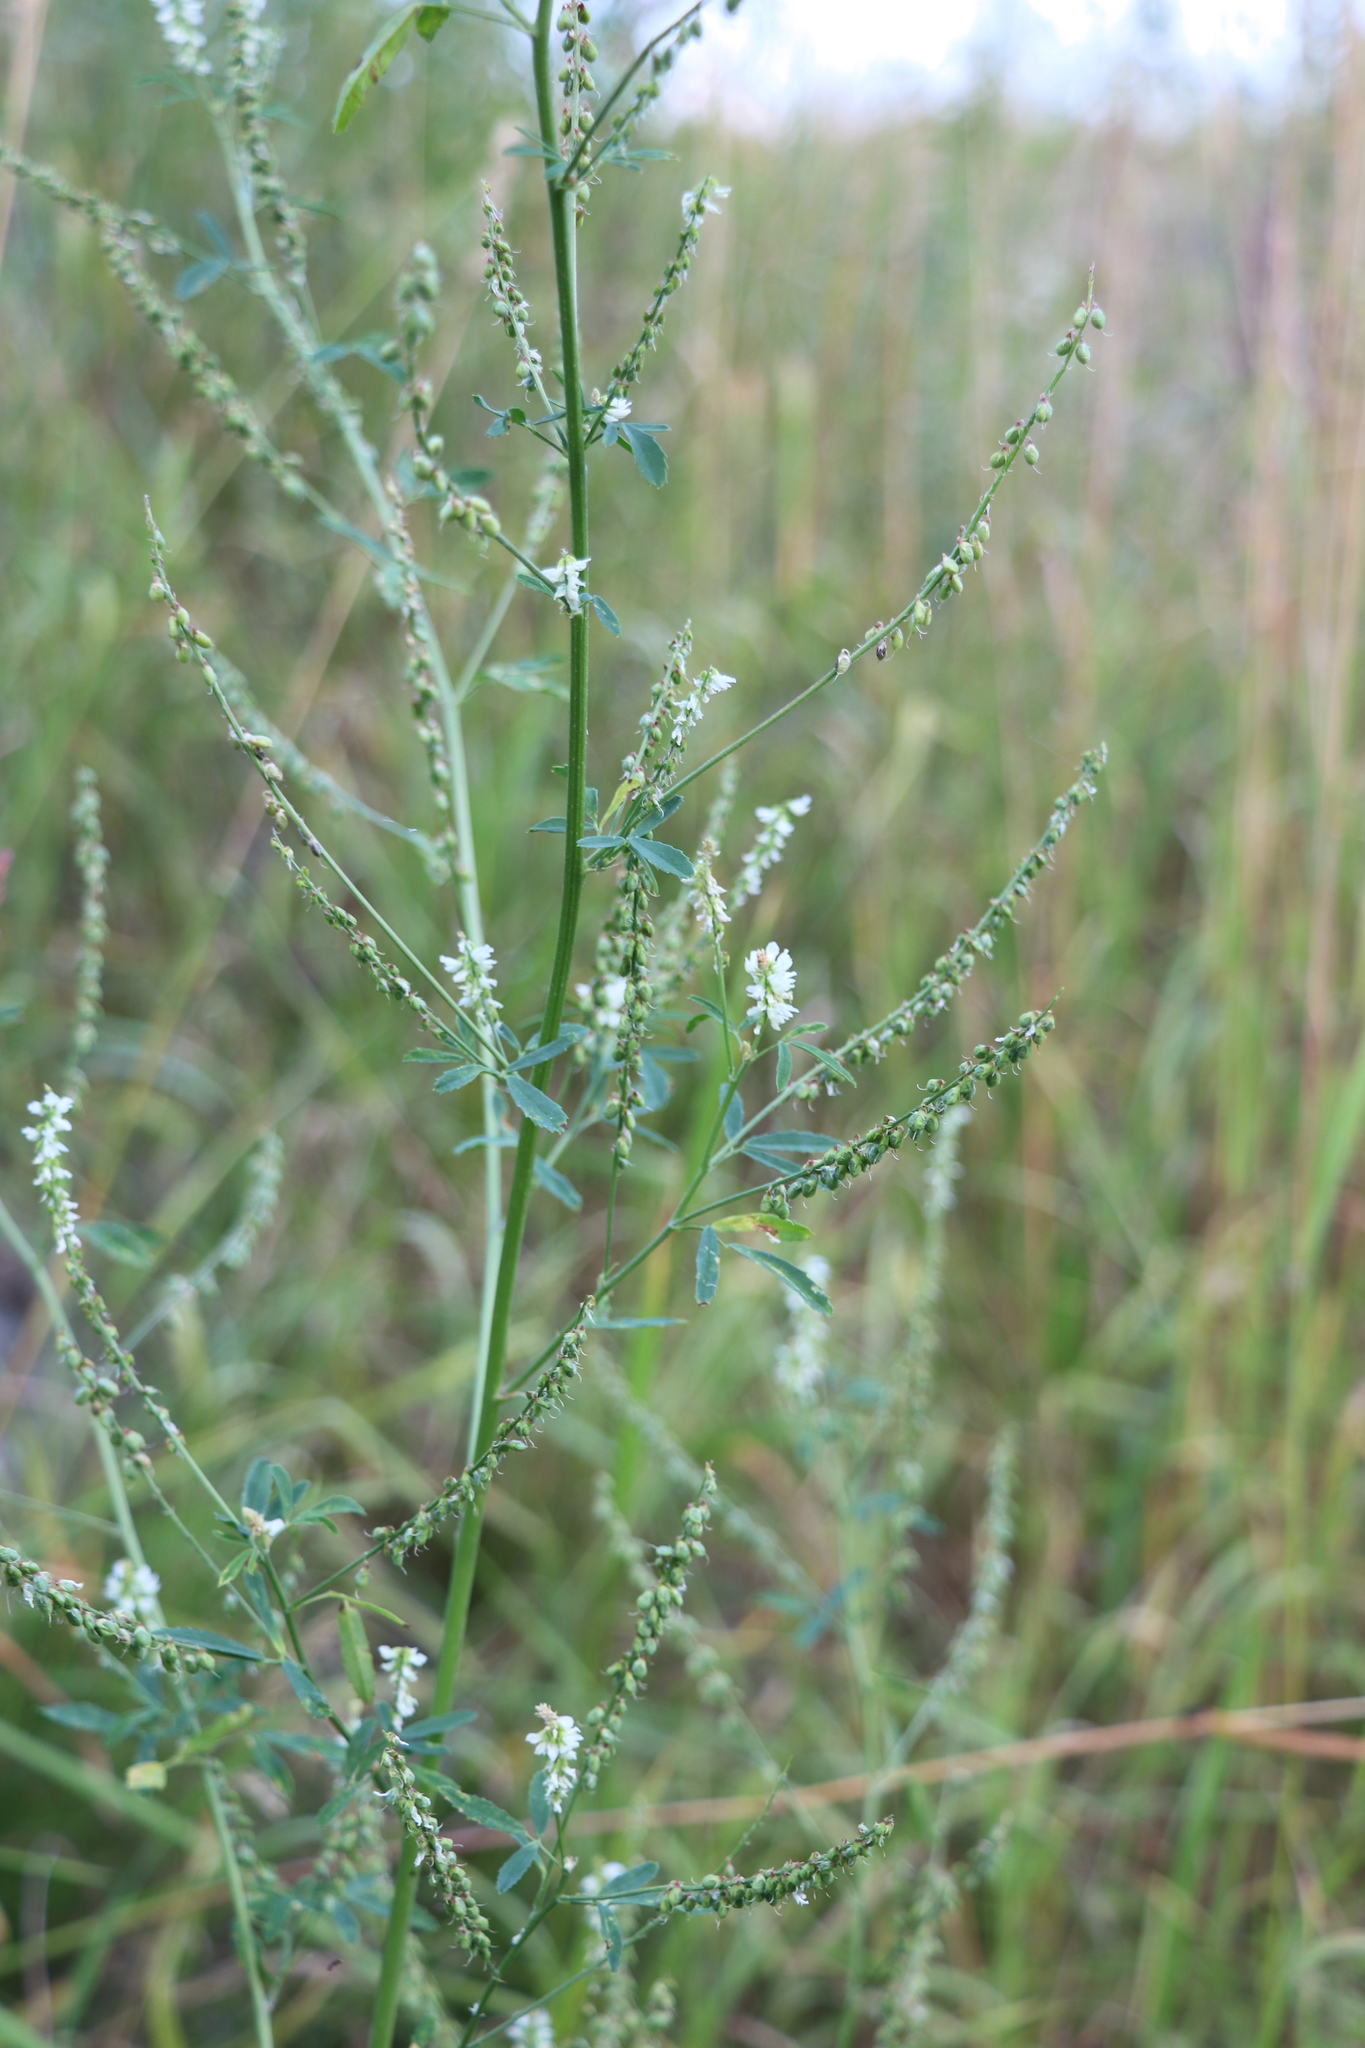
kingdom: Plantae
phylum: Tracheophyta
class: Magnoliopsida
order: Fabales
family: Fabaceae
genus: Melilotus
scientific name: Melilotus albus
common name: White melilot
